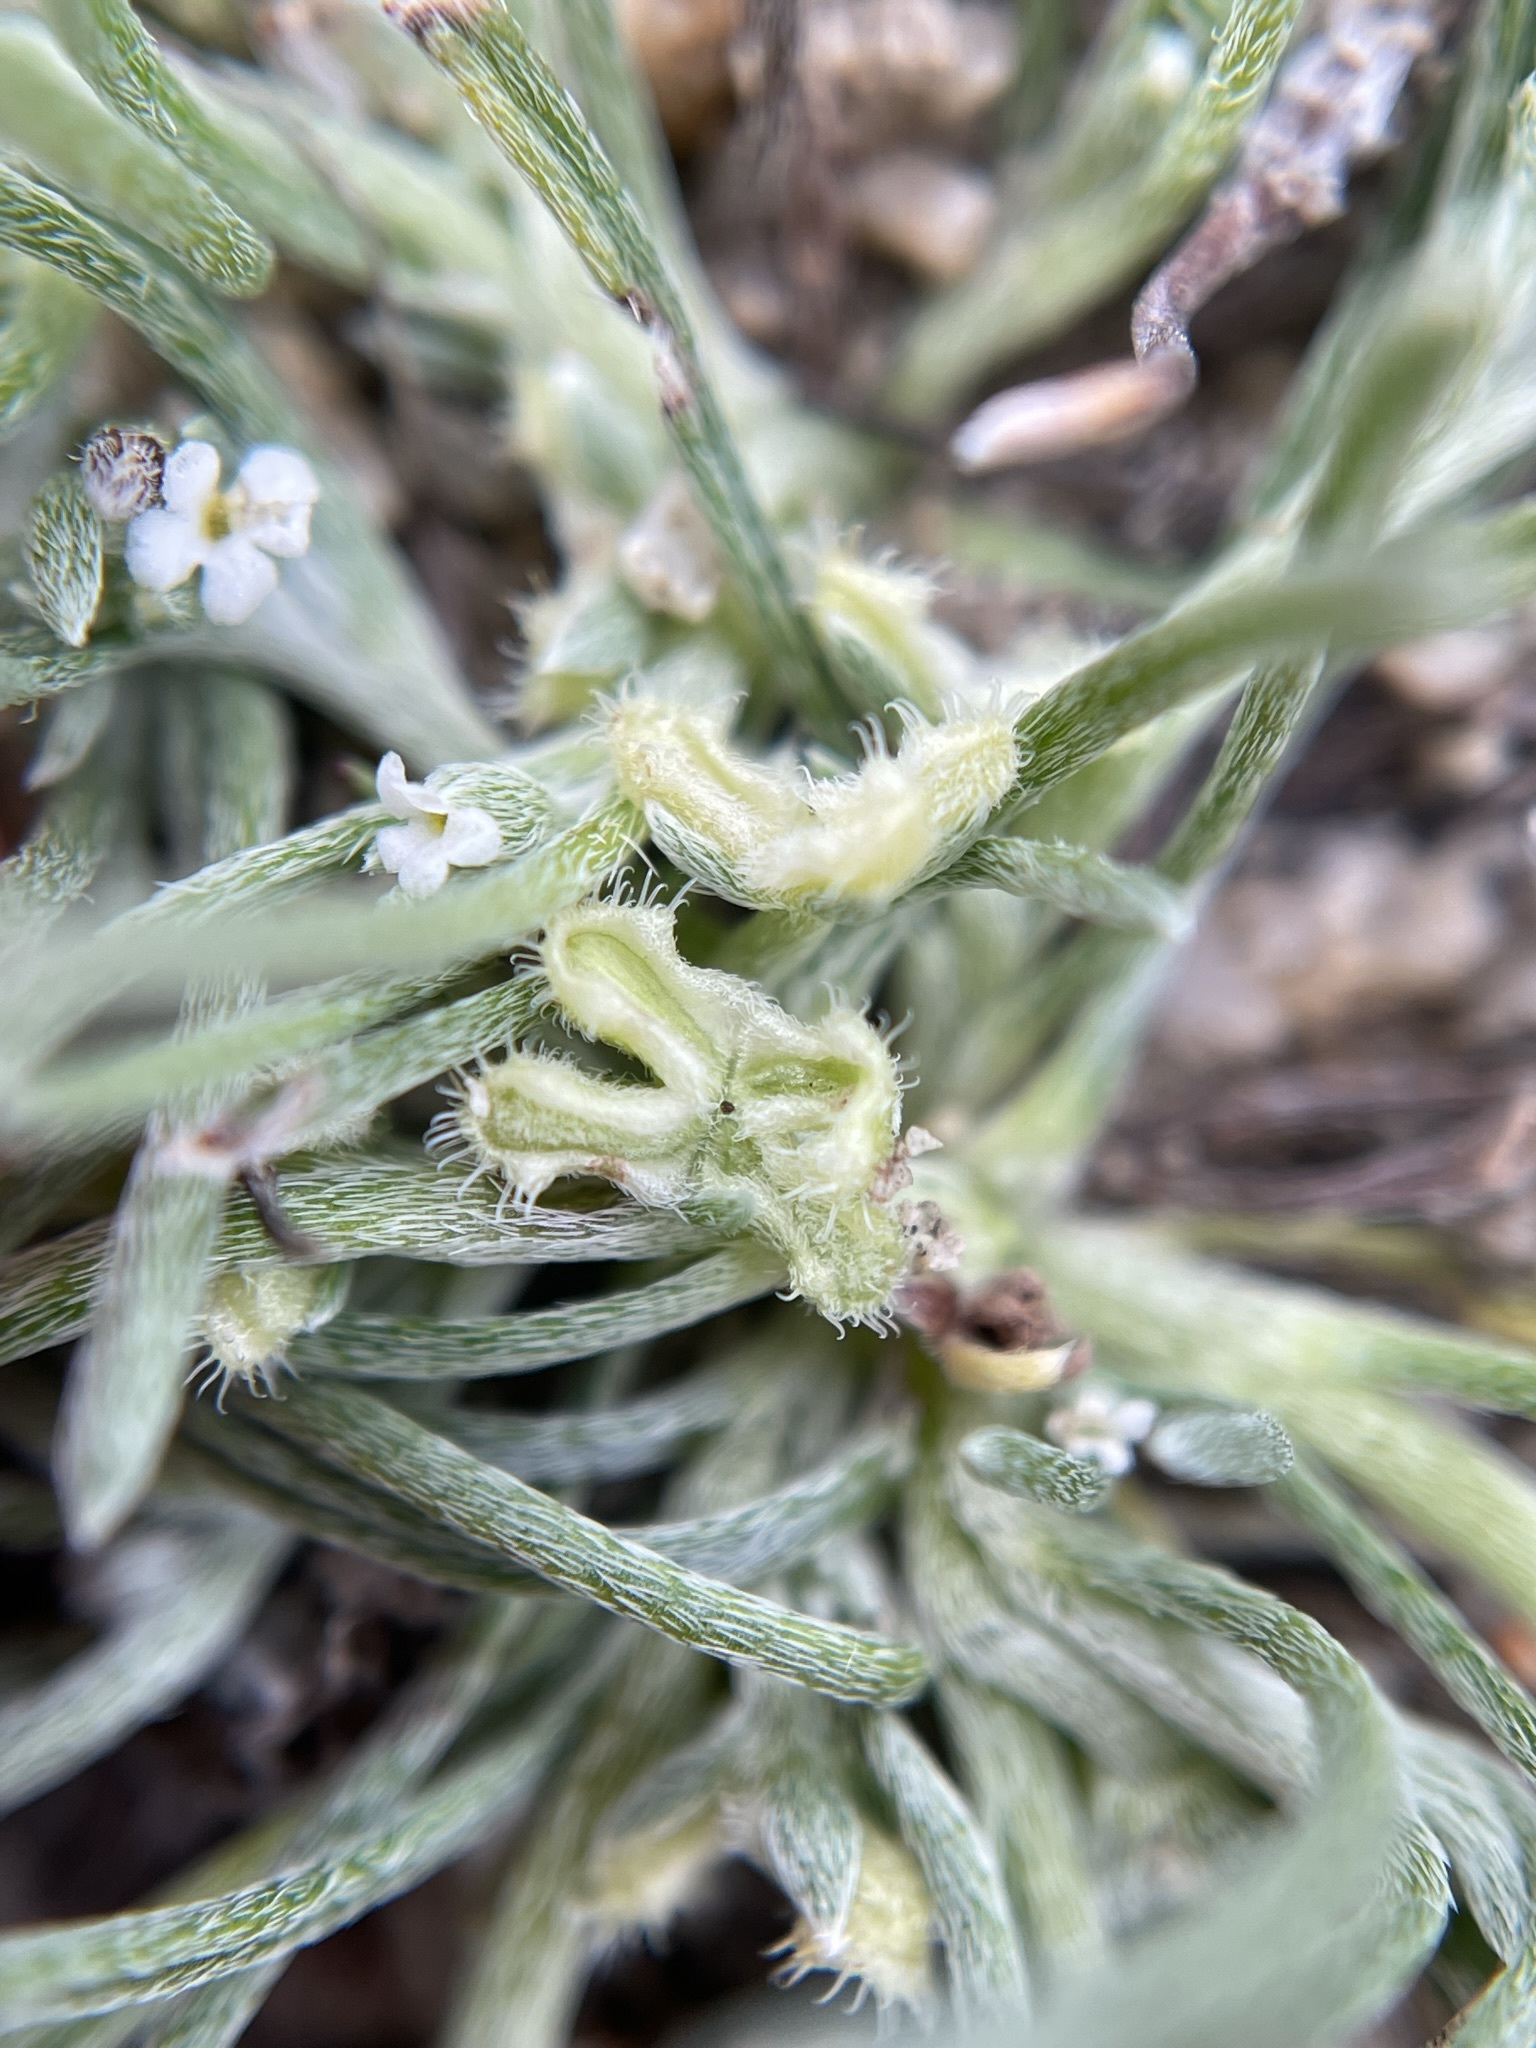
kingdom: Plantae
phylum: Tracheophyta
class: Magnoliopsida
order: Boraginales
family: Boraginaceae
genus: Pectocarya
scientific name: Pectocarya penicillata
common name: Short-leaved combseed
